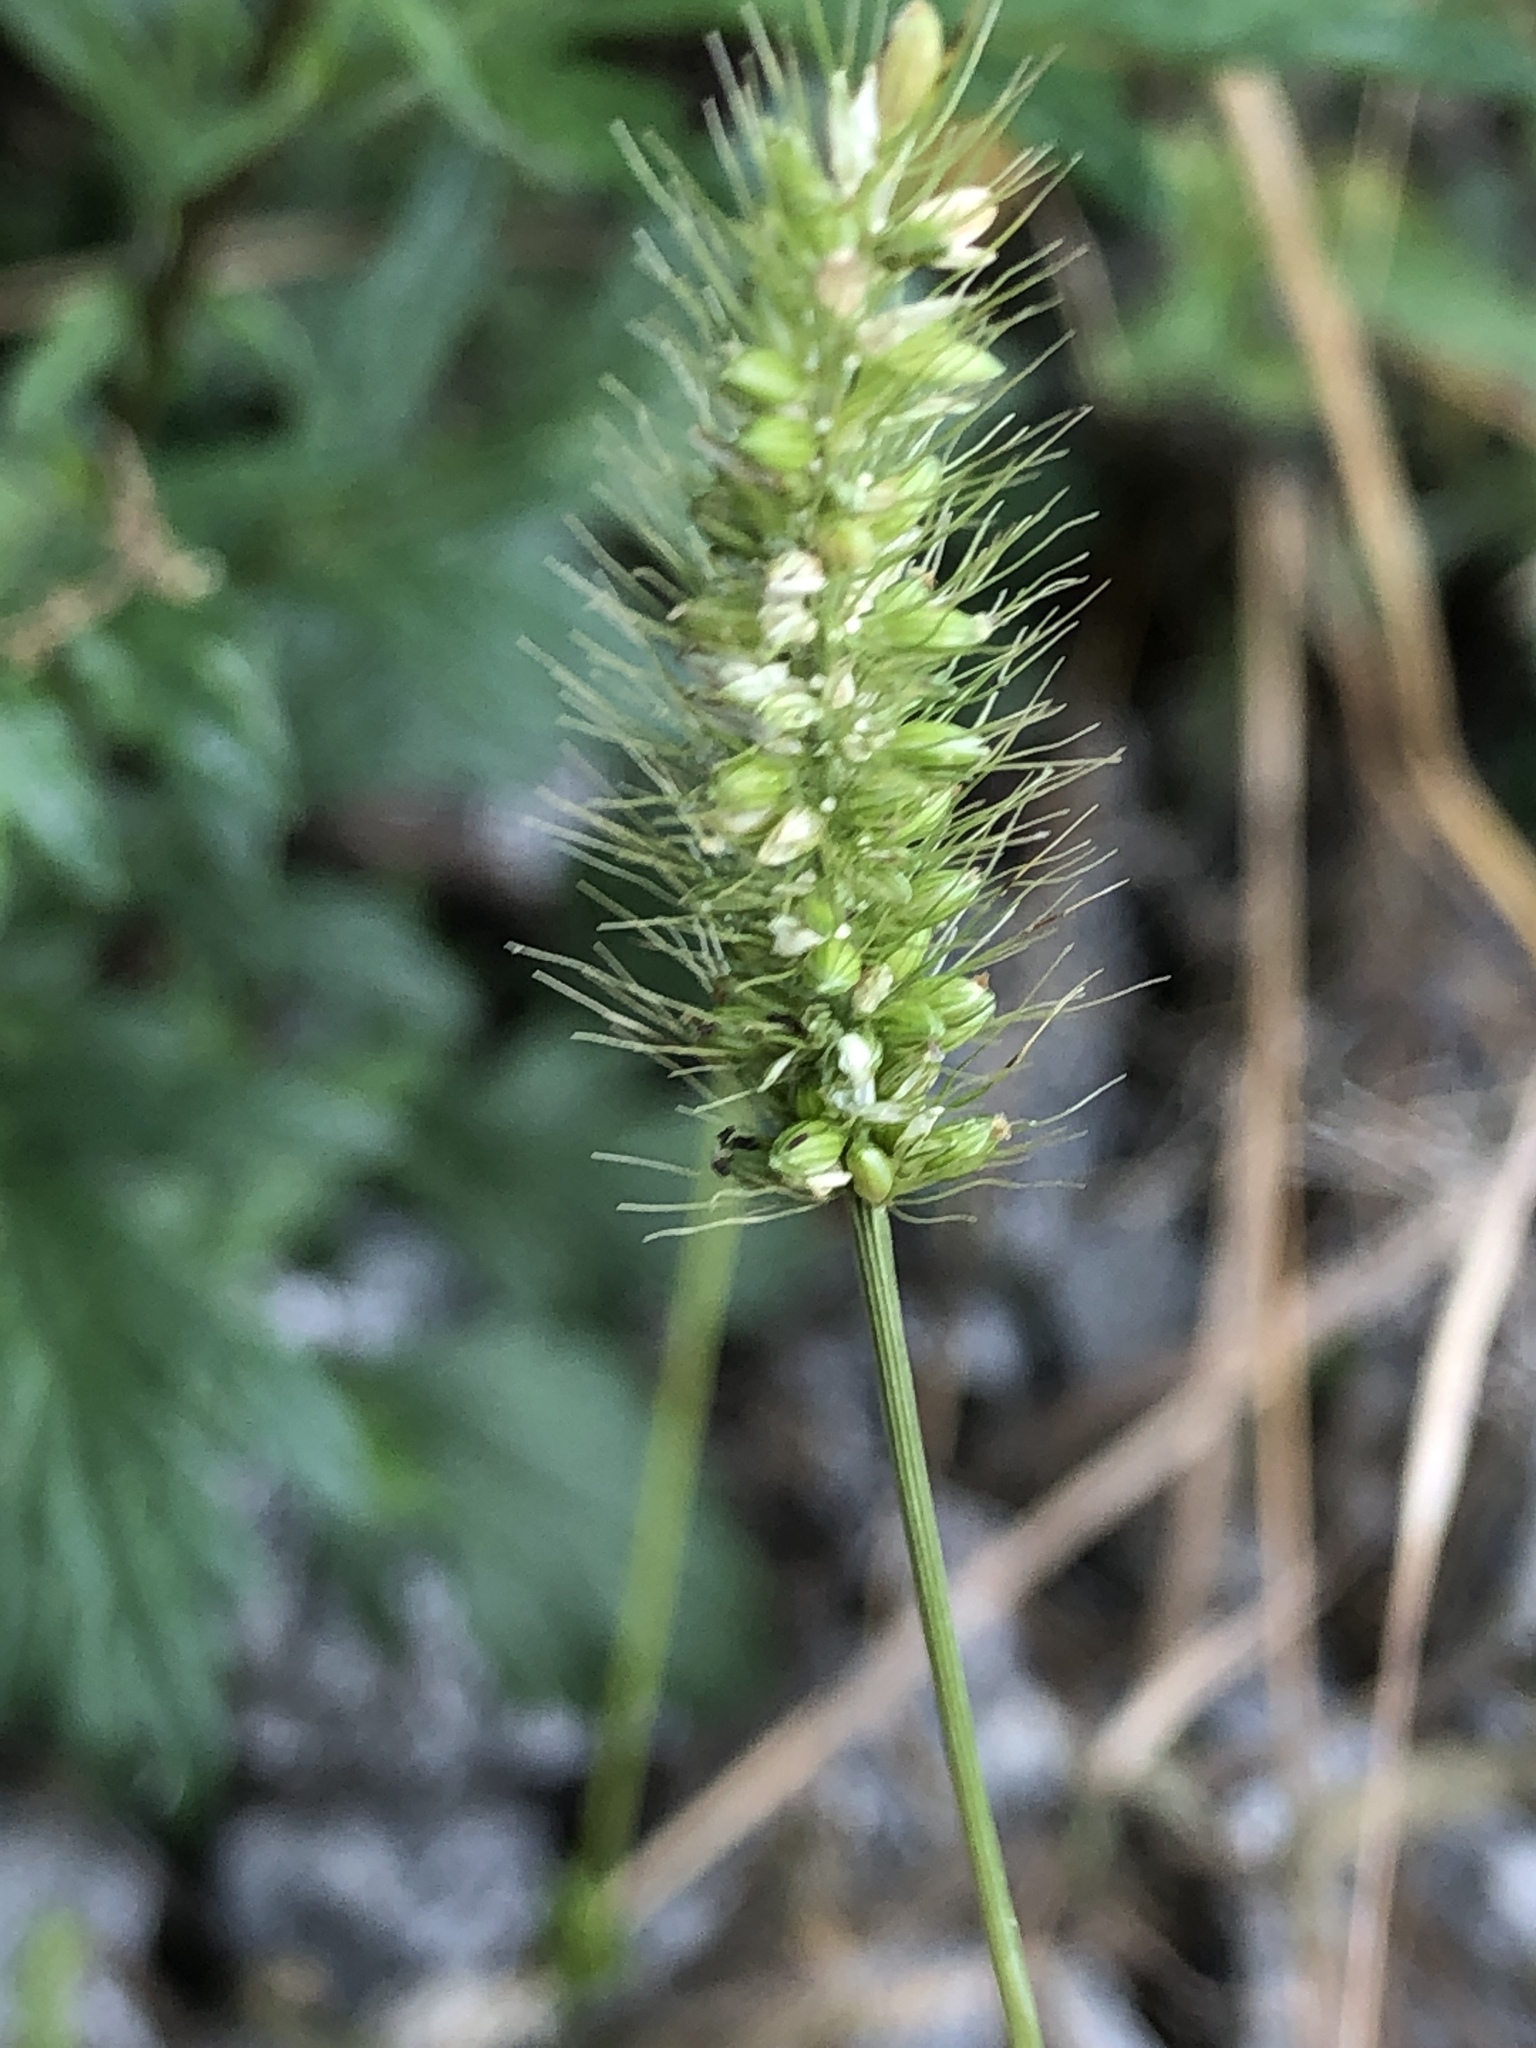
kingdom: Plantae
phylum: Tracheophyta
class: Liliopsida
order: Poales
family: Poaceae
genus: Setaria
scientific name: Setaria viridis
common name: Green bristlegrass
